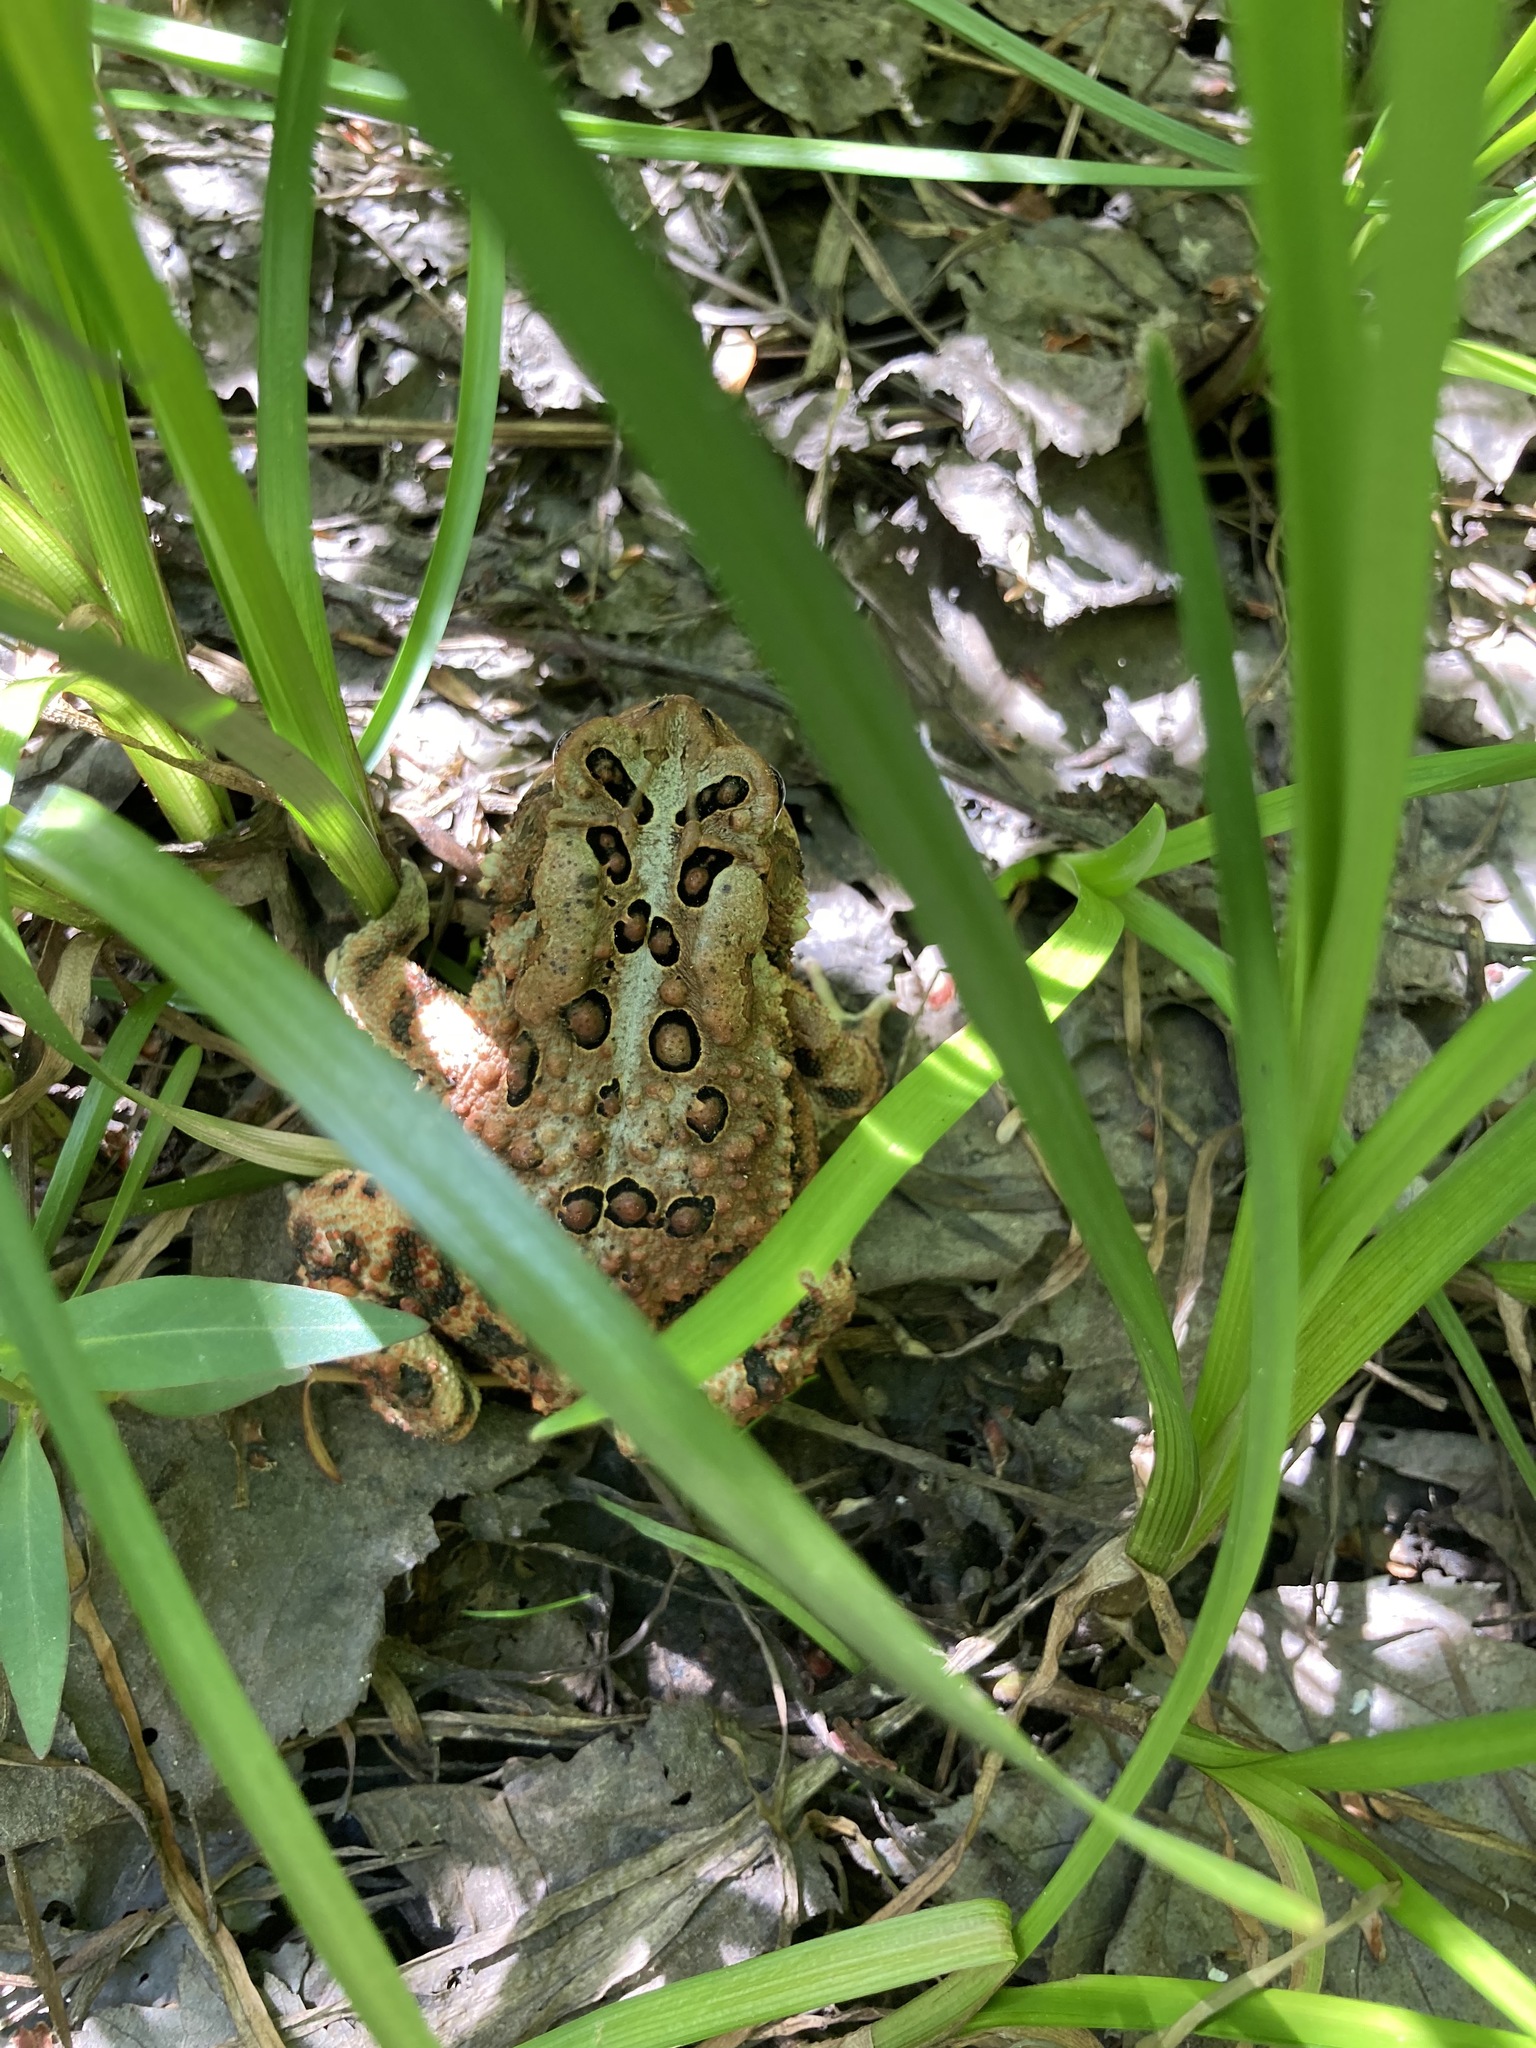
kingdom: Animalia
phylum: Chordata
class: Amphibia
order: Anura
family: Bufonidae
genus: Anaxyrus
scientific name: Anaxyrus americanus
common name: American toad
